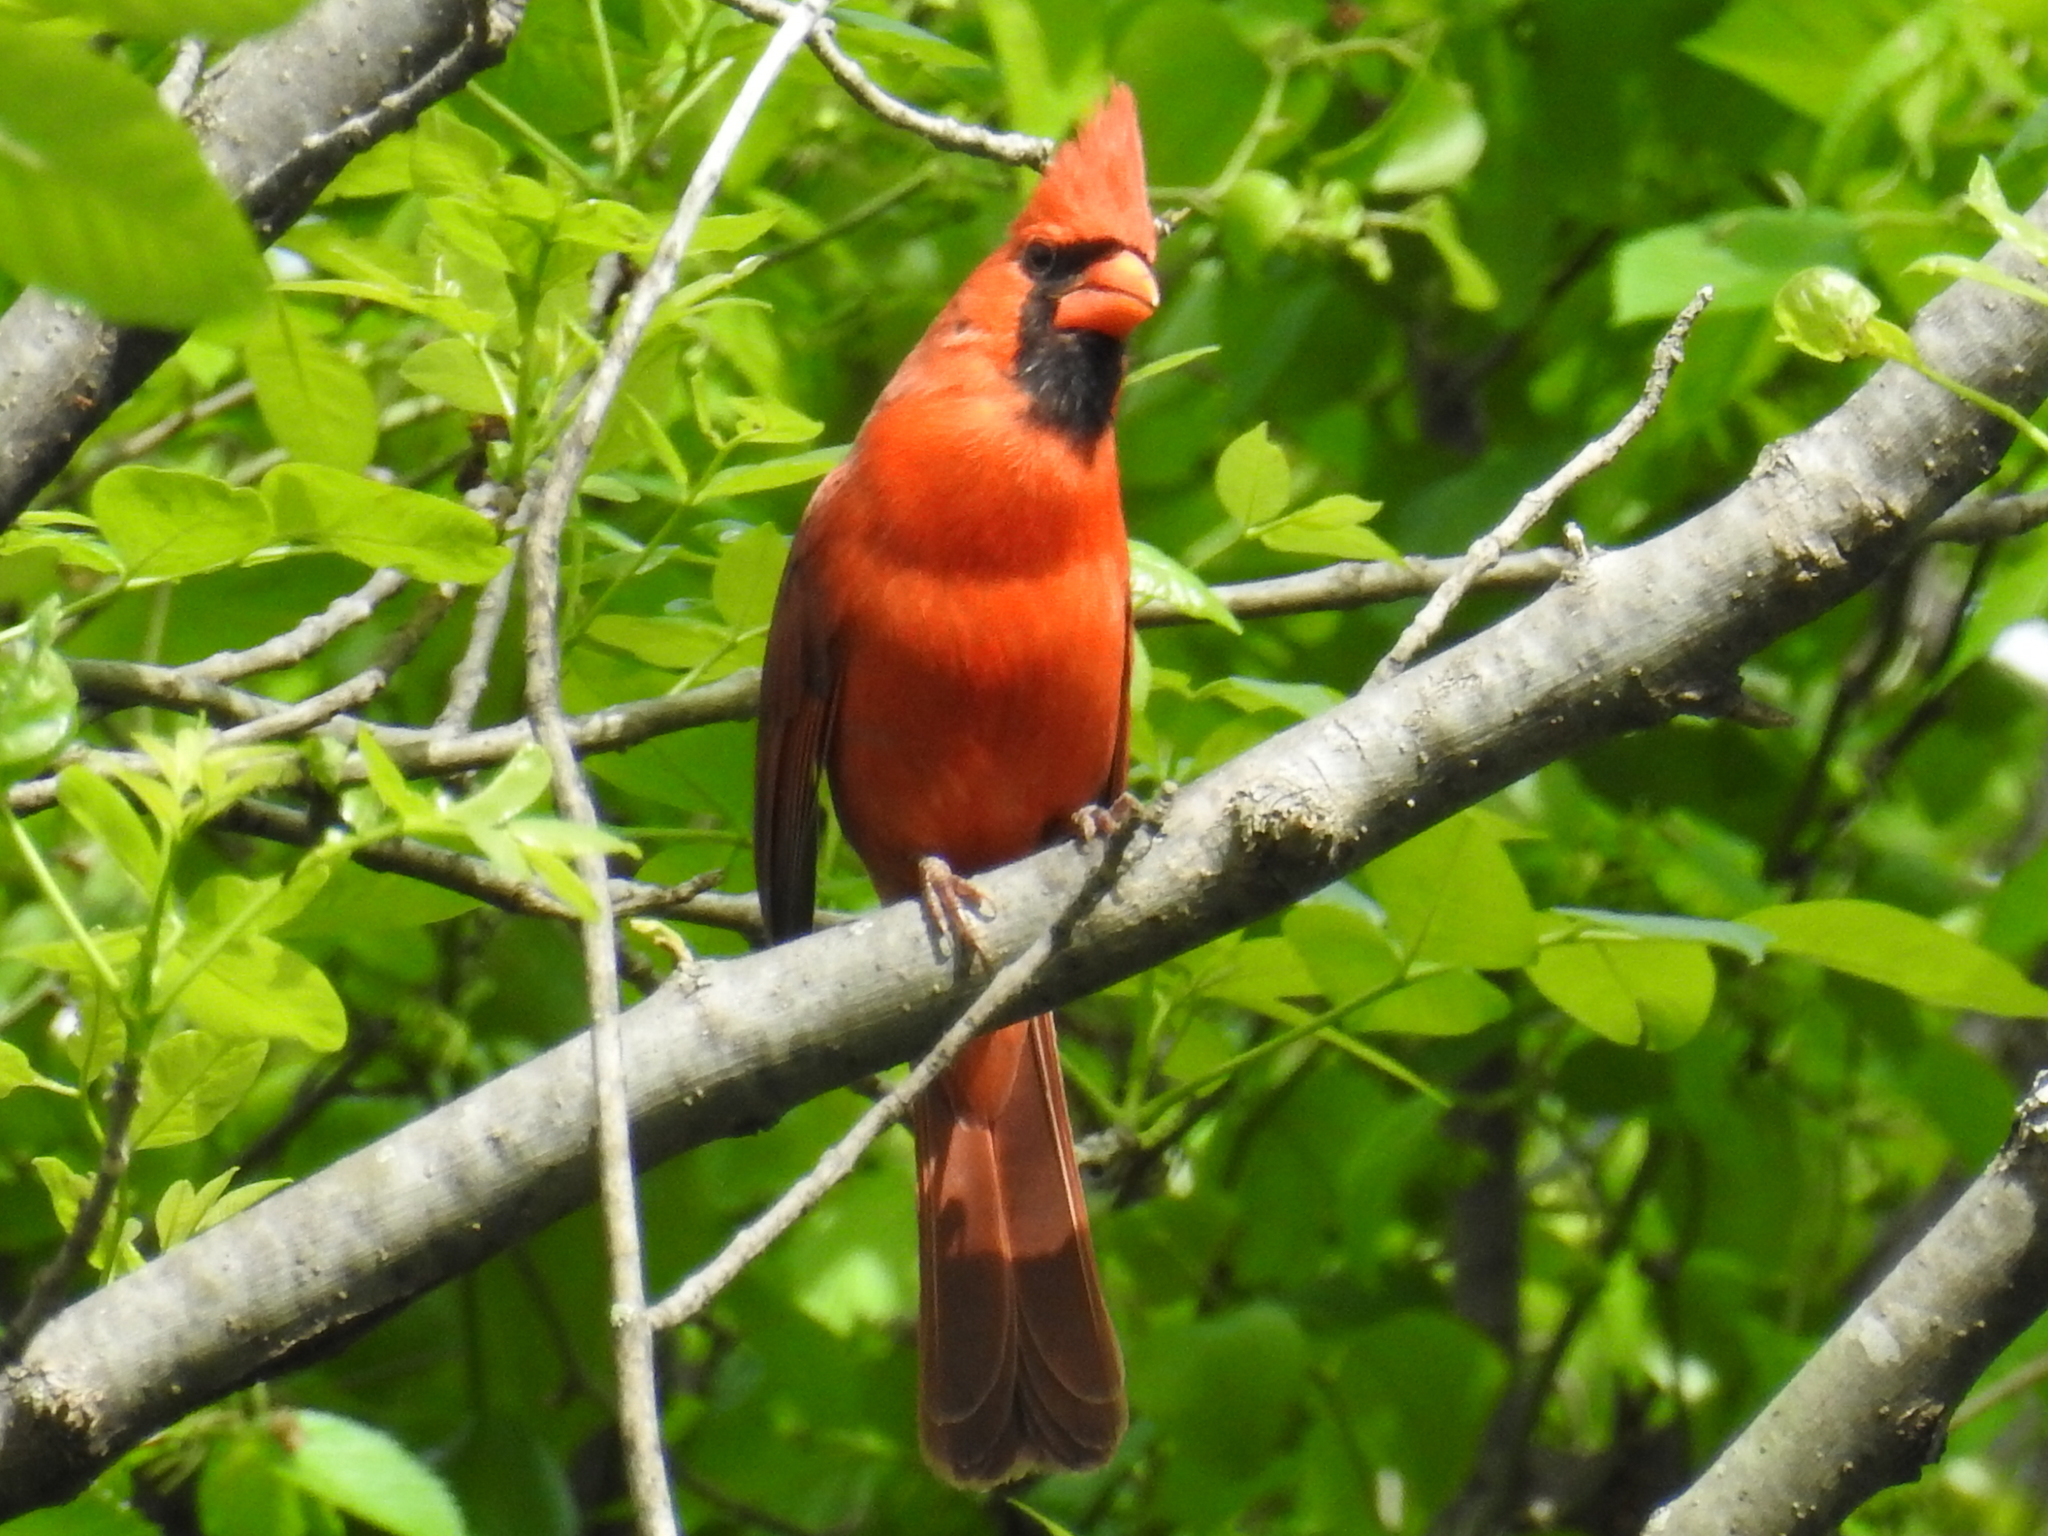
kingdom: Animalia
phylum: Chordata
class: Aves
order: Passeriformes
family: Cardinalidae
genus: Cardinalis
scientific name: Cardinalis cardinalis
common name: Northern cardinal
